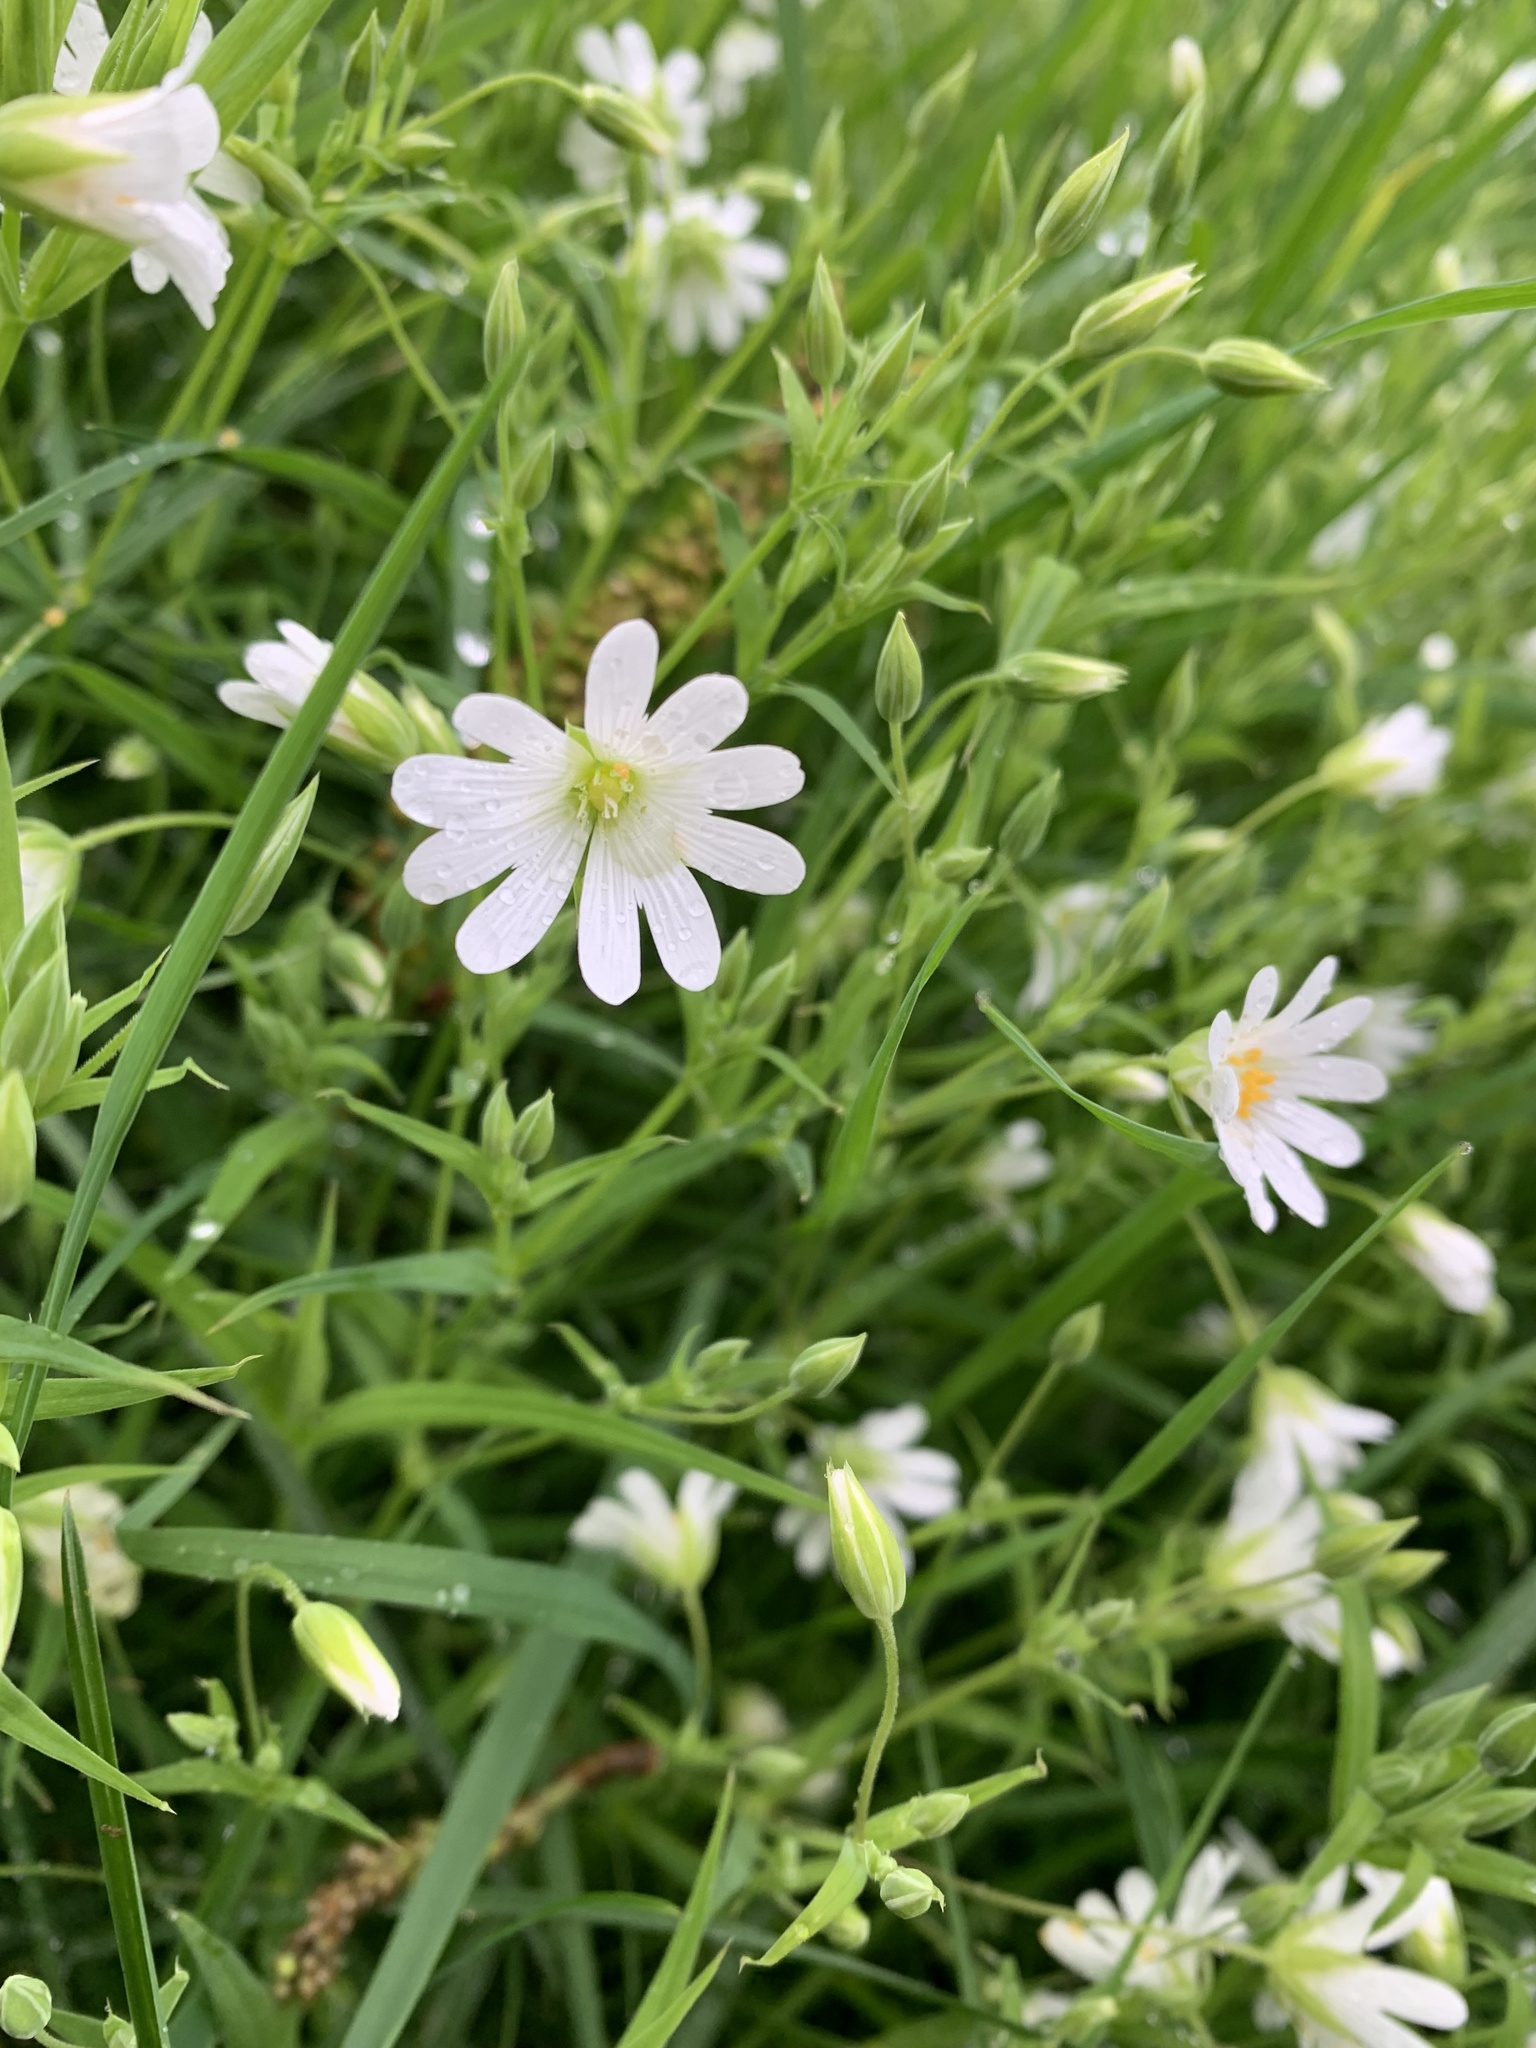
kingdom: Plantae
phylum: Tracheophyta
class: Magnoliopsida
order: Caryophyllales
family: Caryophyllaceae
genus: Rabelera
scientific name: Rabelera holostea
